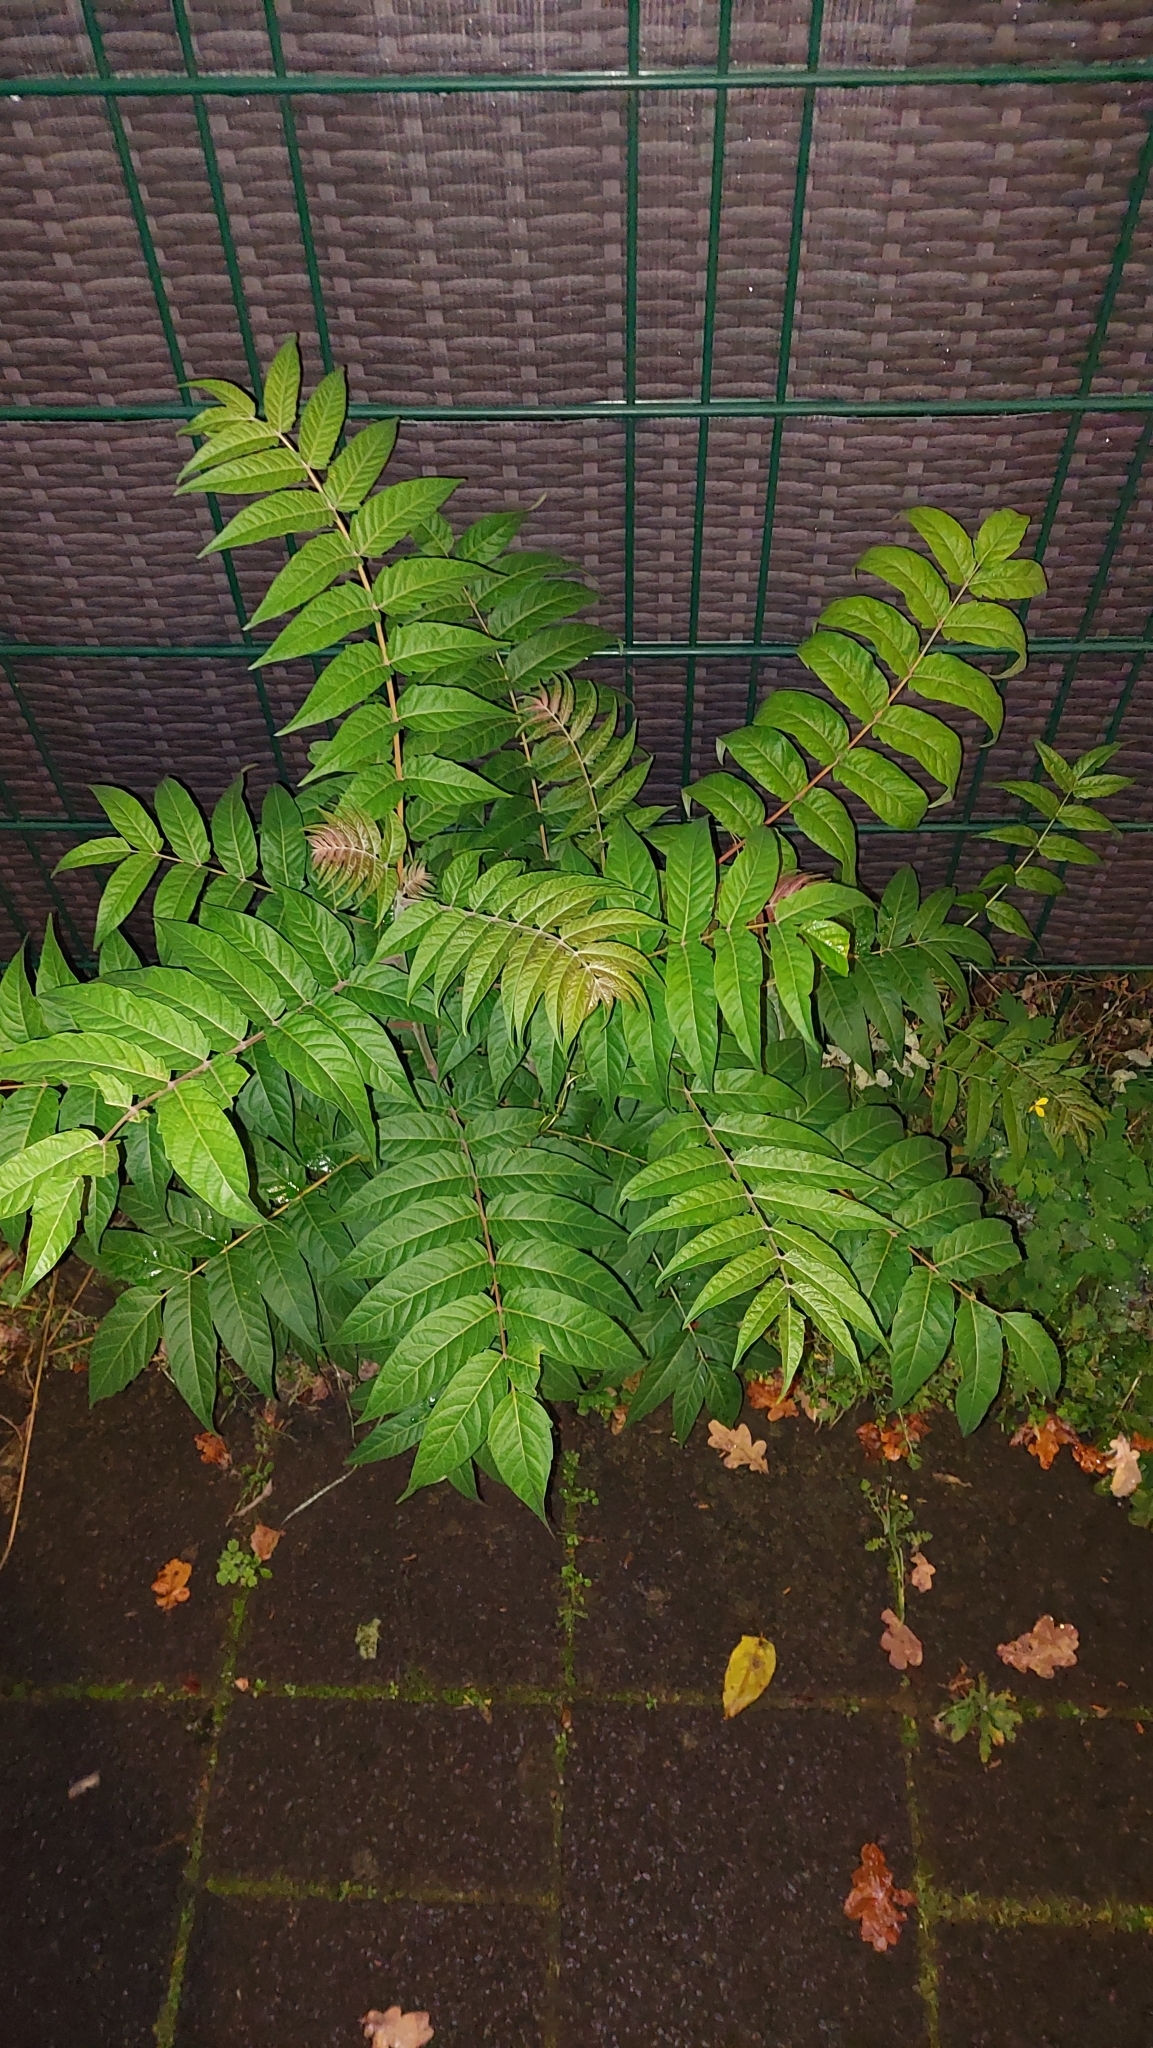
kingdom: Plantae
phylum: Tracheophyta
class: Magnoliopsida
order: Sapindales
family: Simaroubaceae
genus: Ailanthus
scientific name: Ailanthus altissima
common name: Tree-of-heaven
